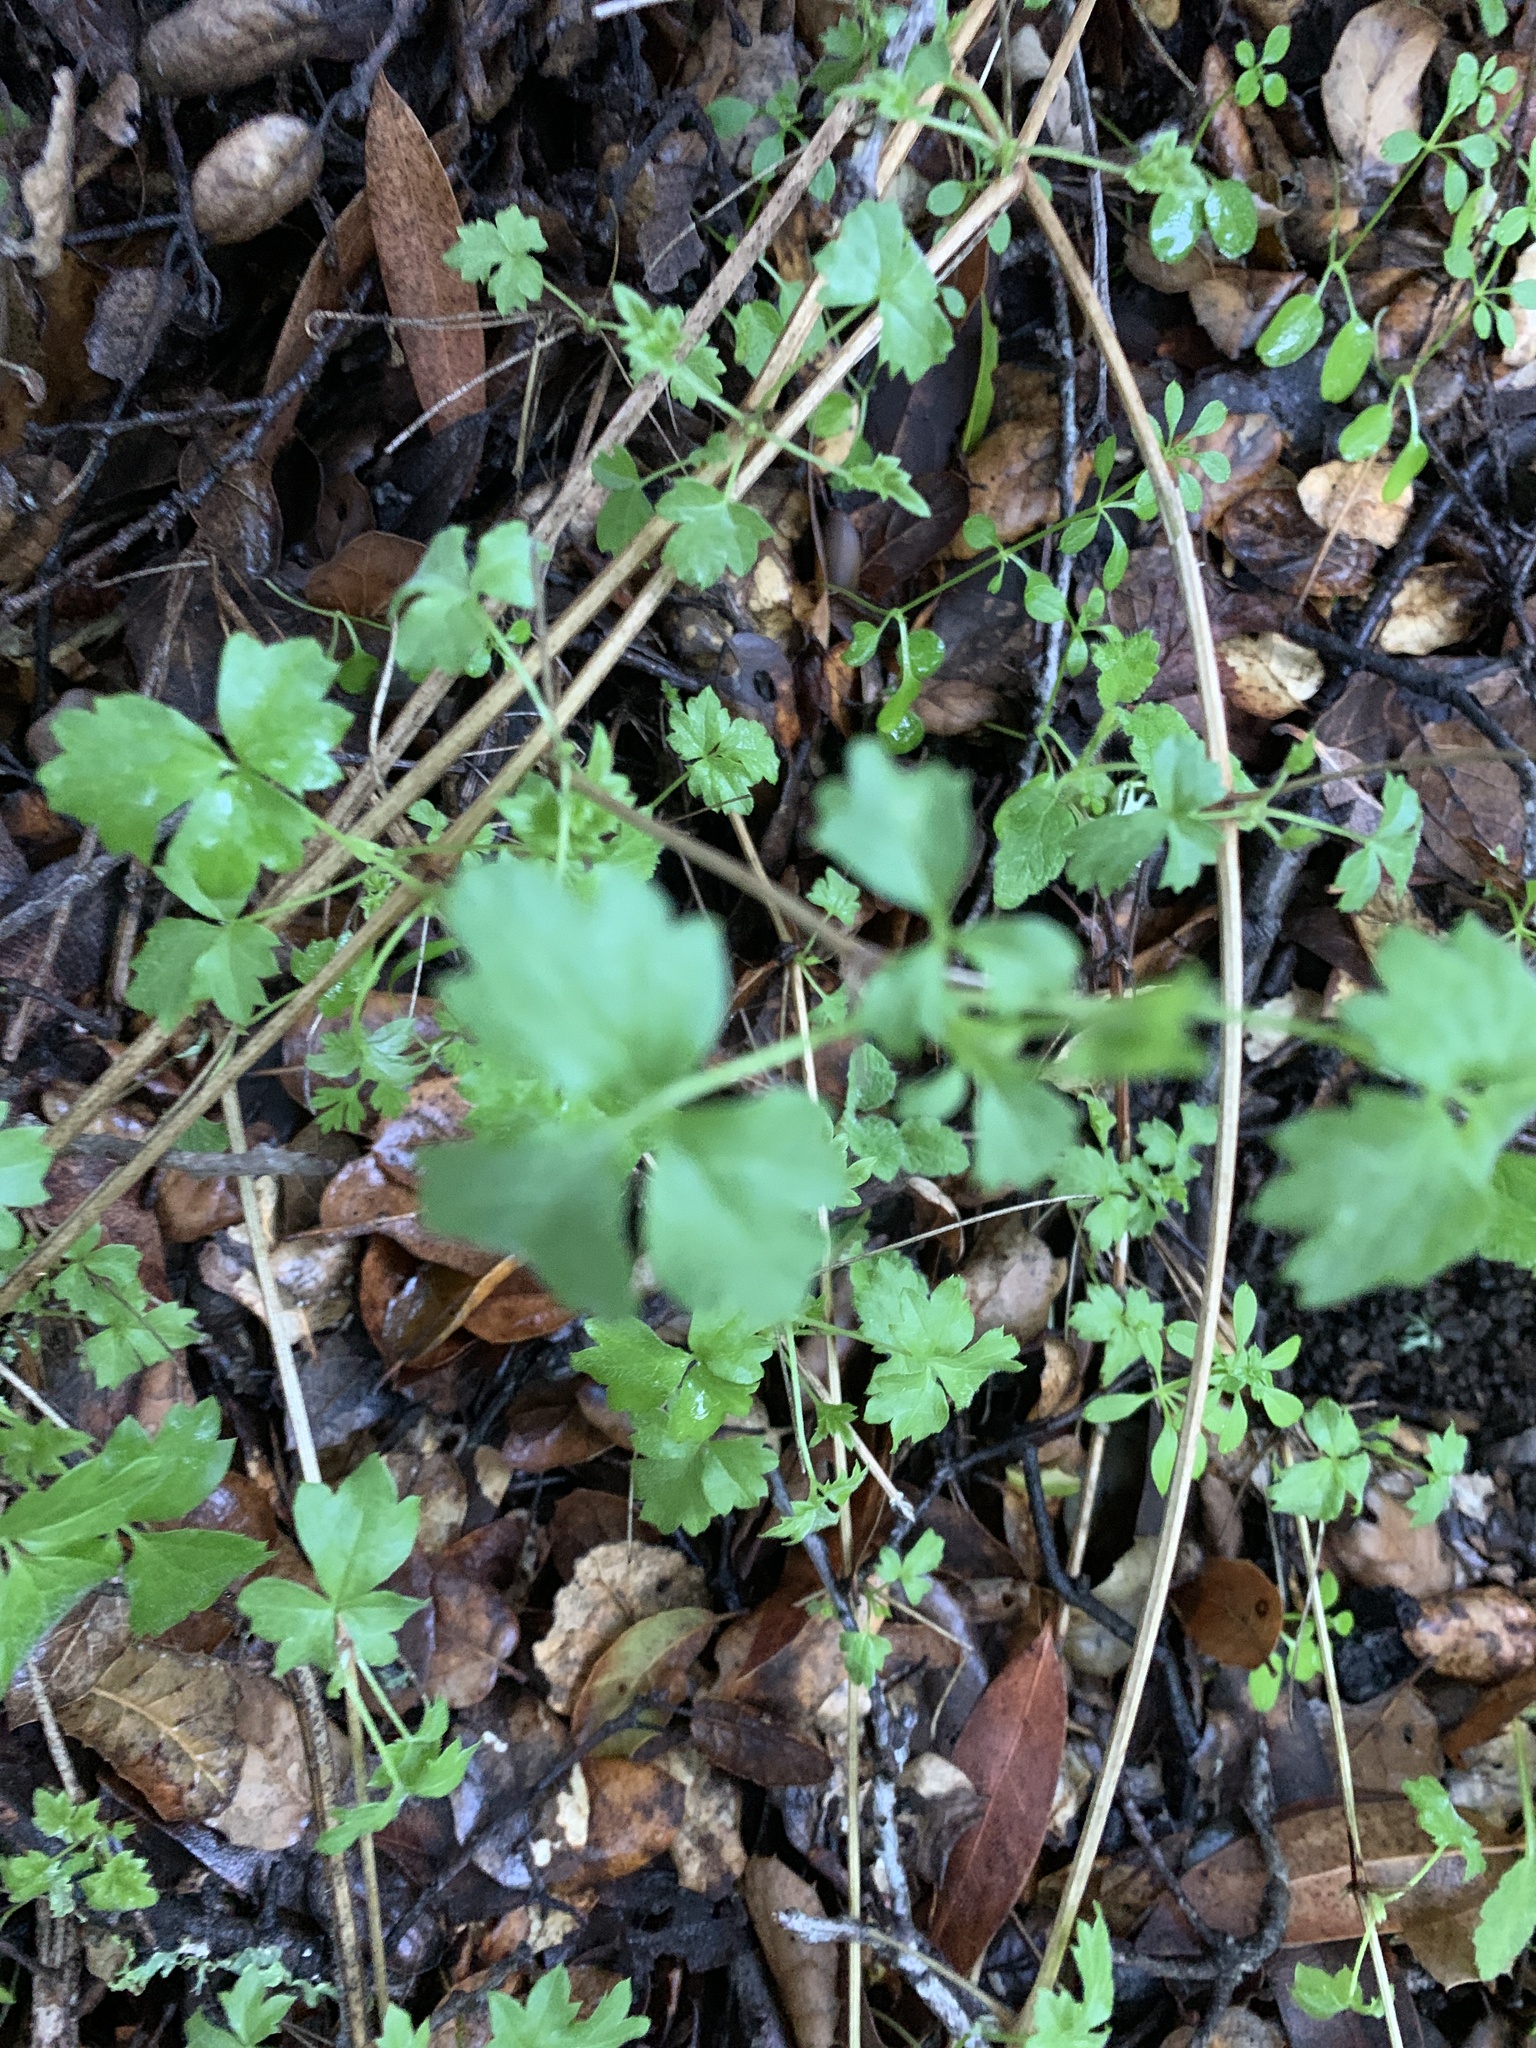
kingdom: Plantae
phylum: Tracheophyta
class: Magnoliopsida
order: Ranunculales
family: Ranunculaceae
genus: Clematis
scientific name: Clematis lasiantha
